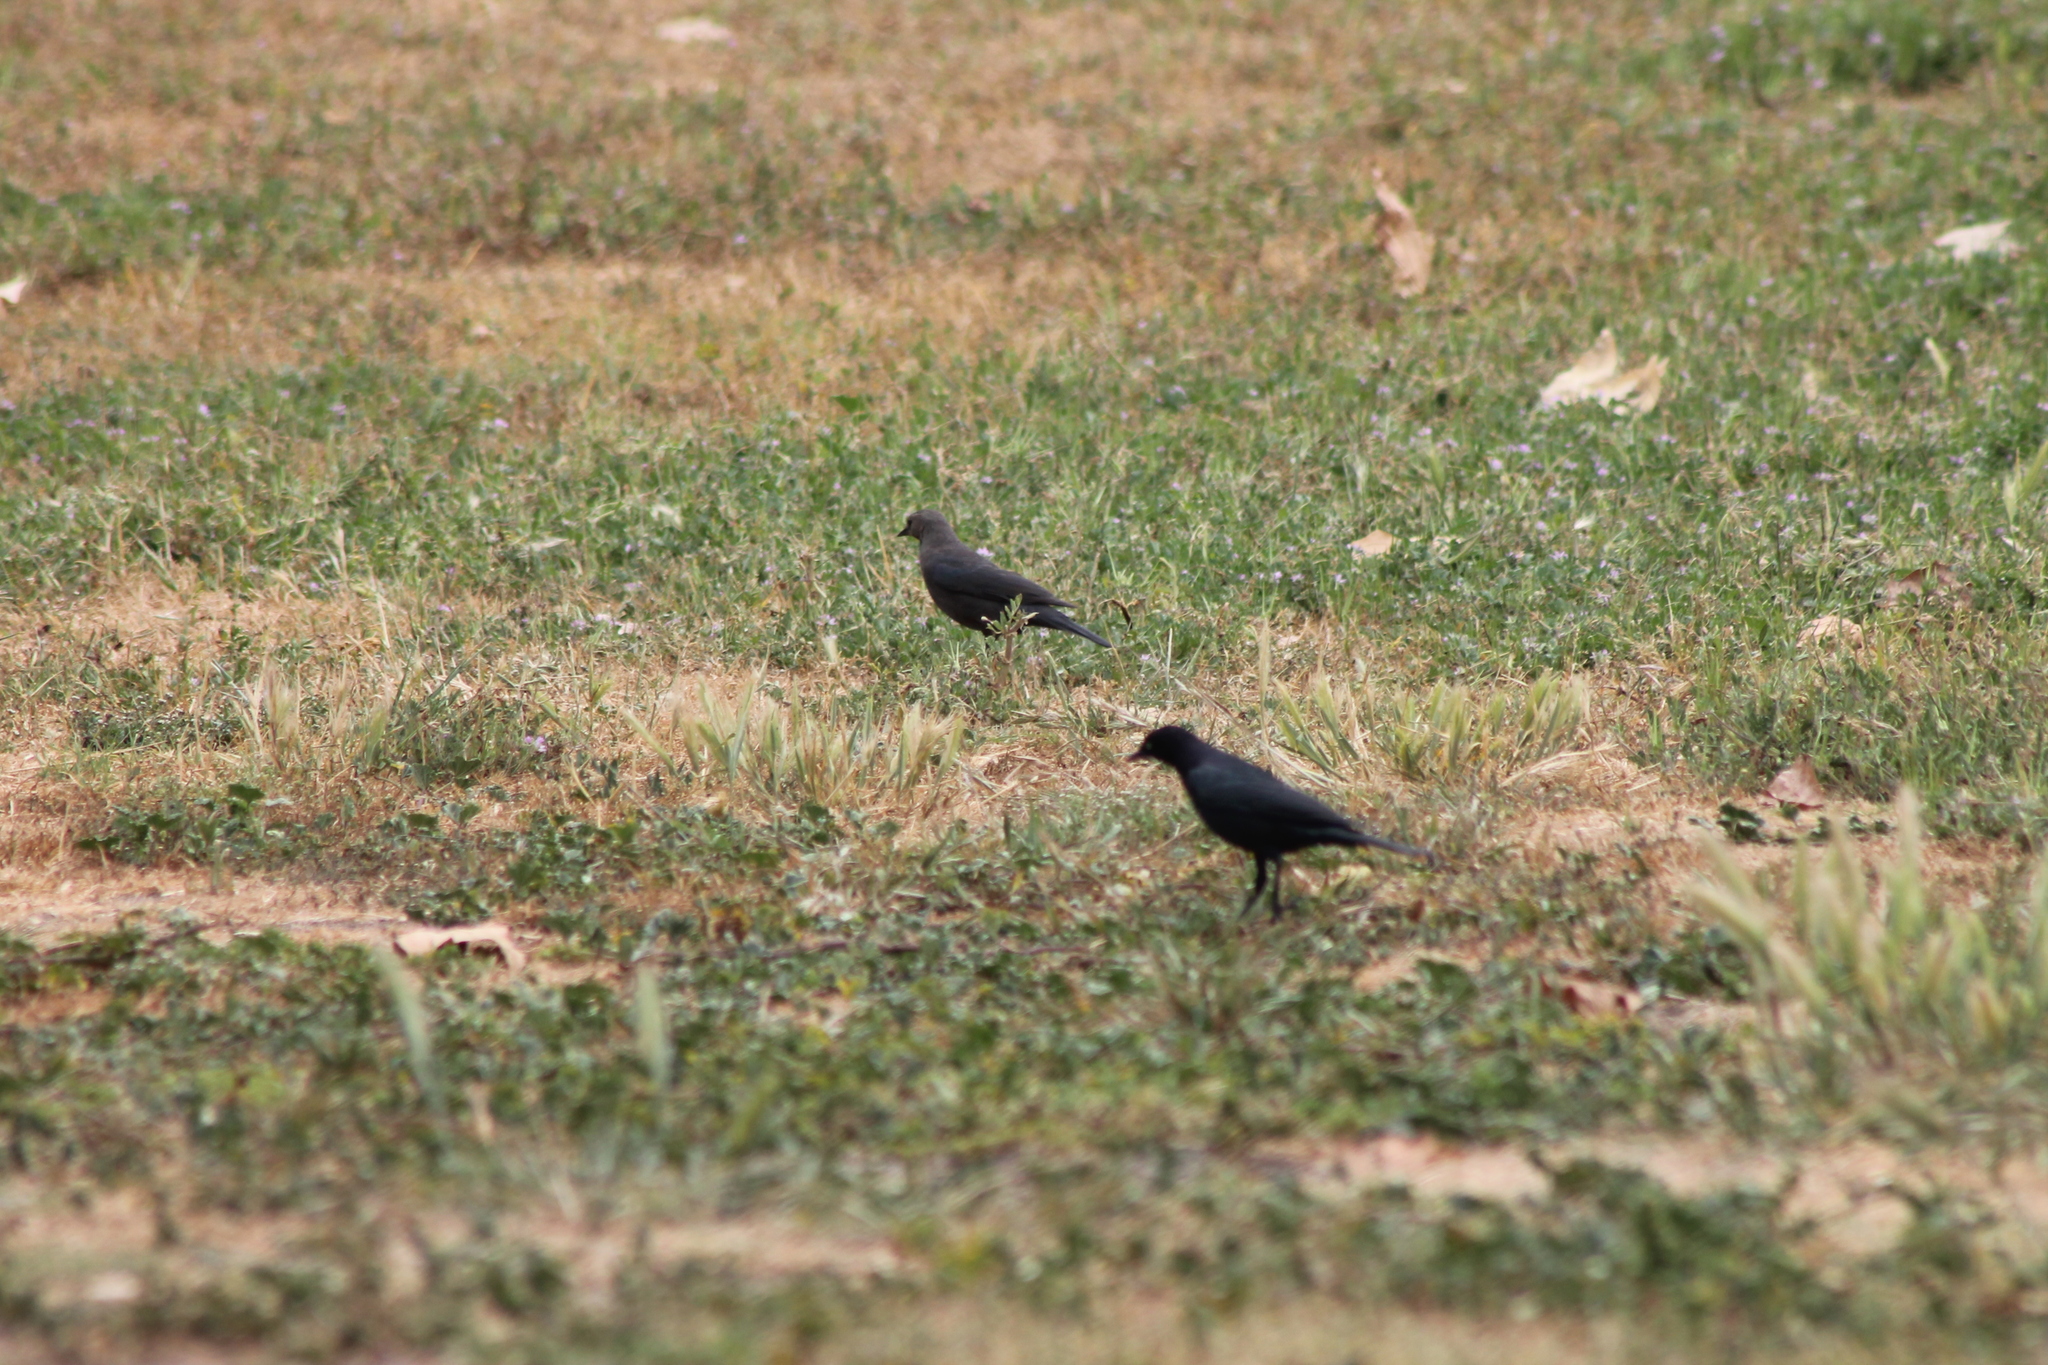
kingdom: Animalia
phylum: Chordata
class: Aves
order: Passeriformes
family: Icteridae
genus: Euphagus
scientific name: Euphagus cyanocephalus
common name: Brewer's blackbird
